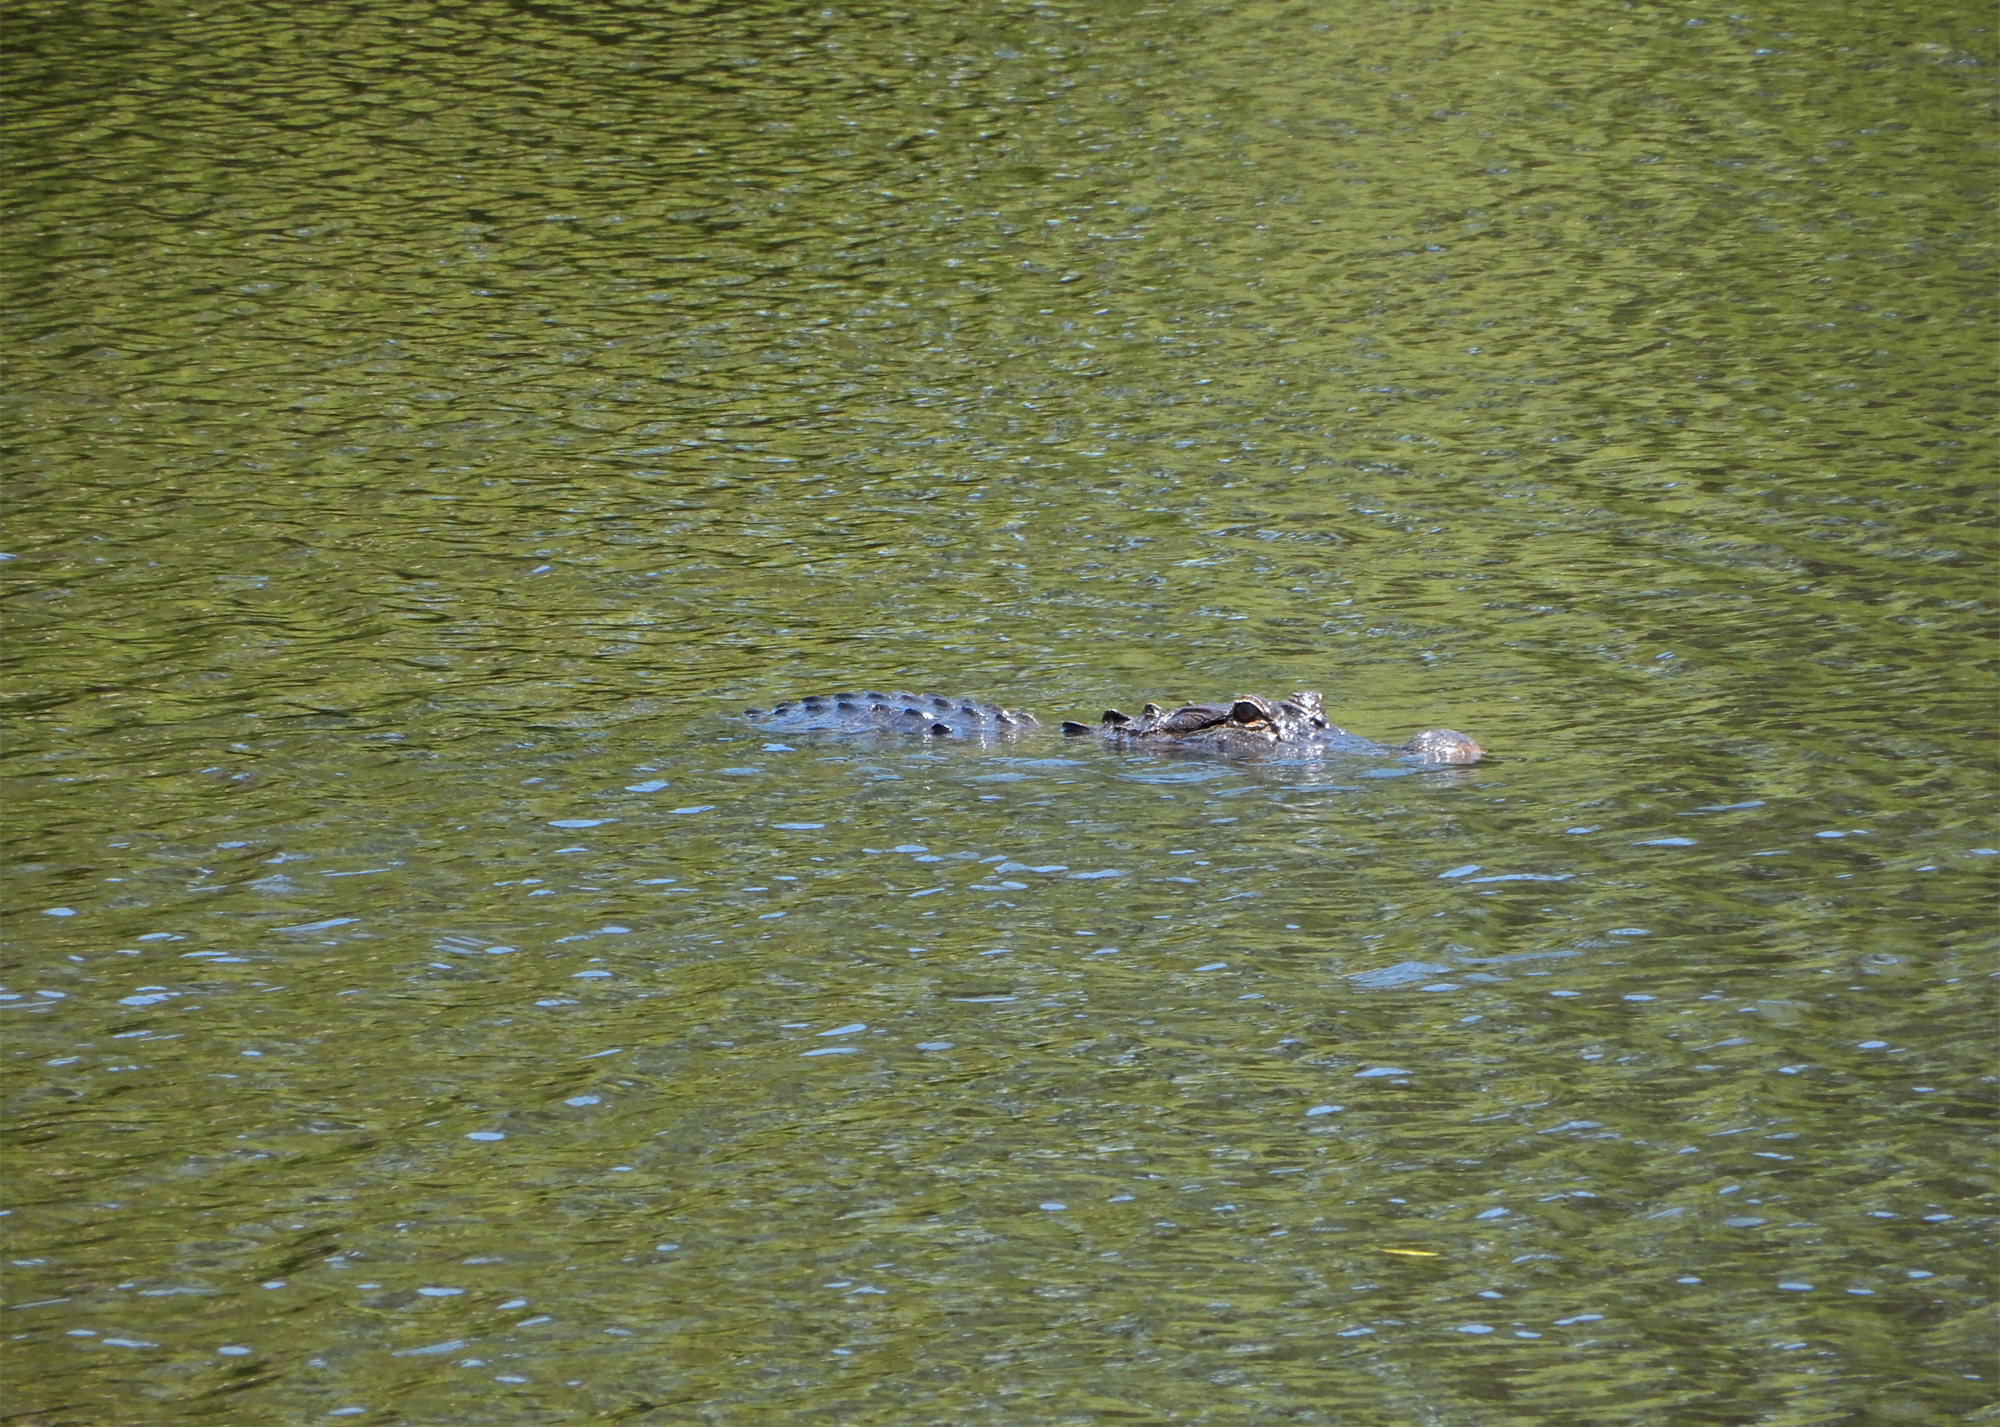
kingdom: Animalia
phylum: Chordata
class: Crocodylia
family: Alligatoridae
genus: Alligator
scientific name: Alligator mississippiensis
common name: American alligator
